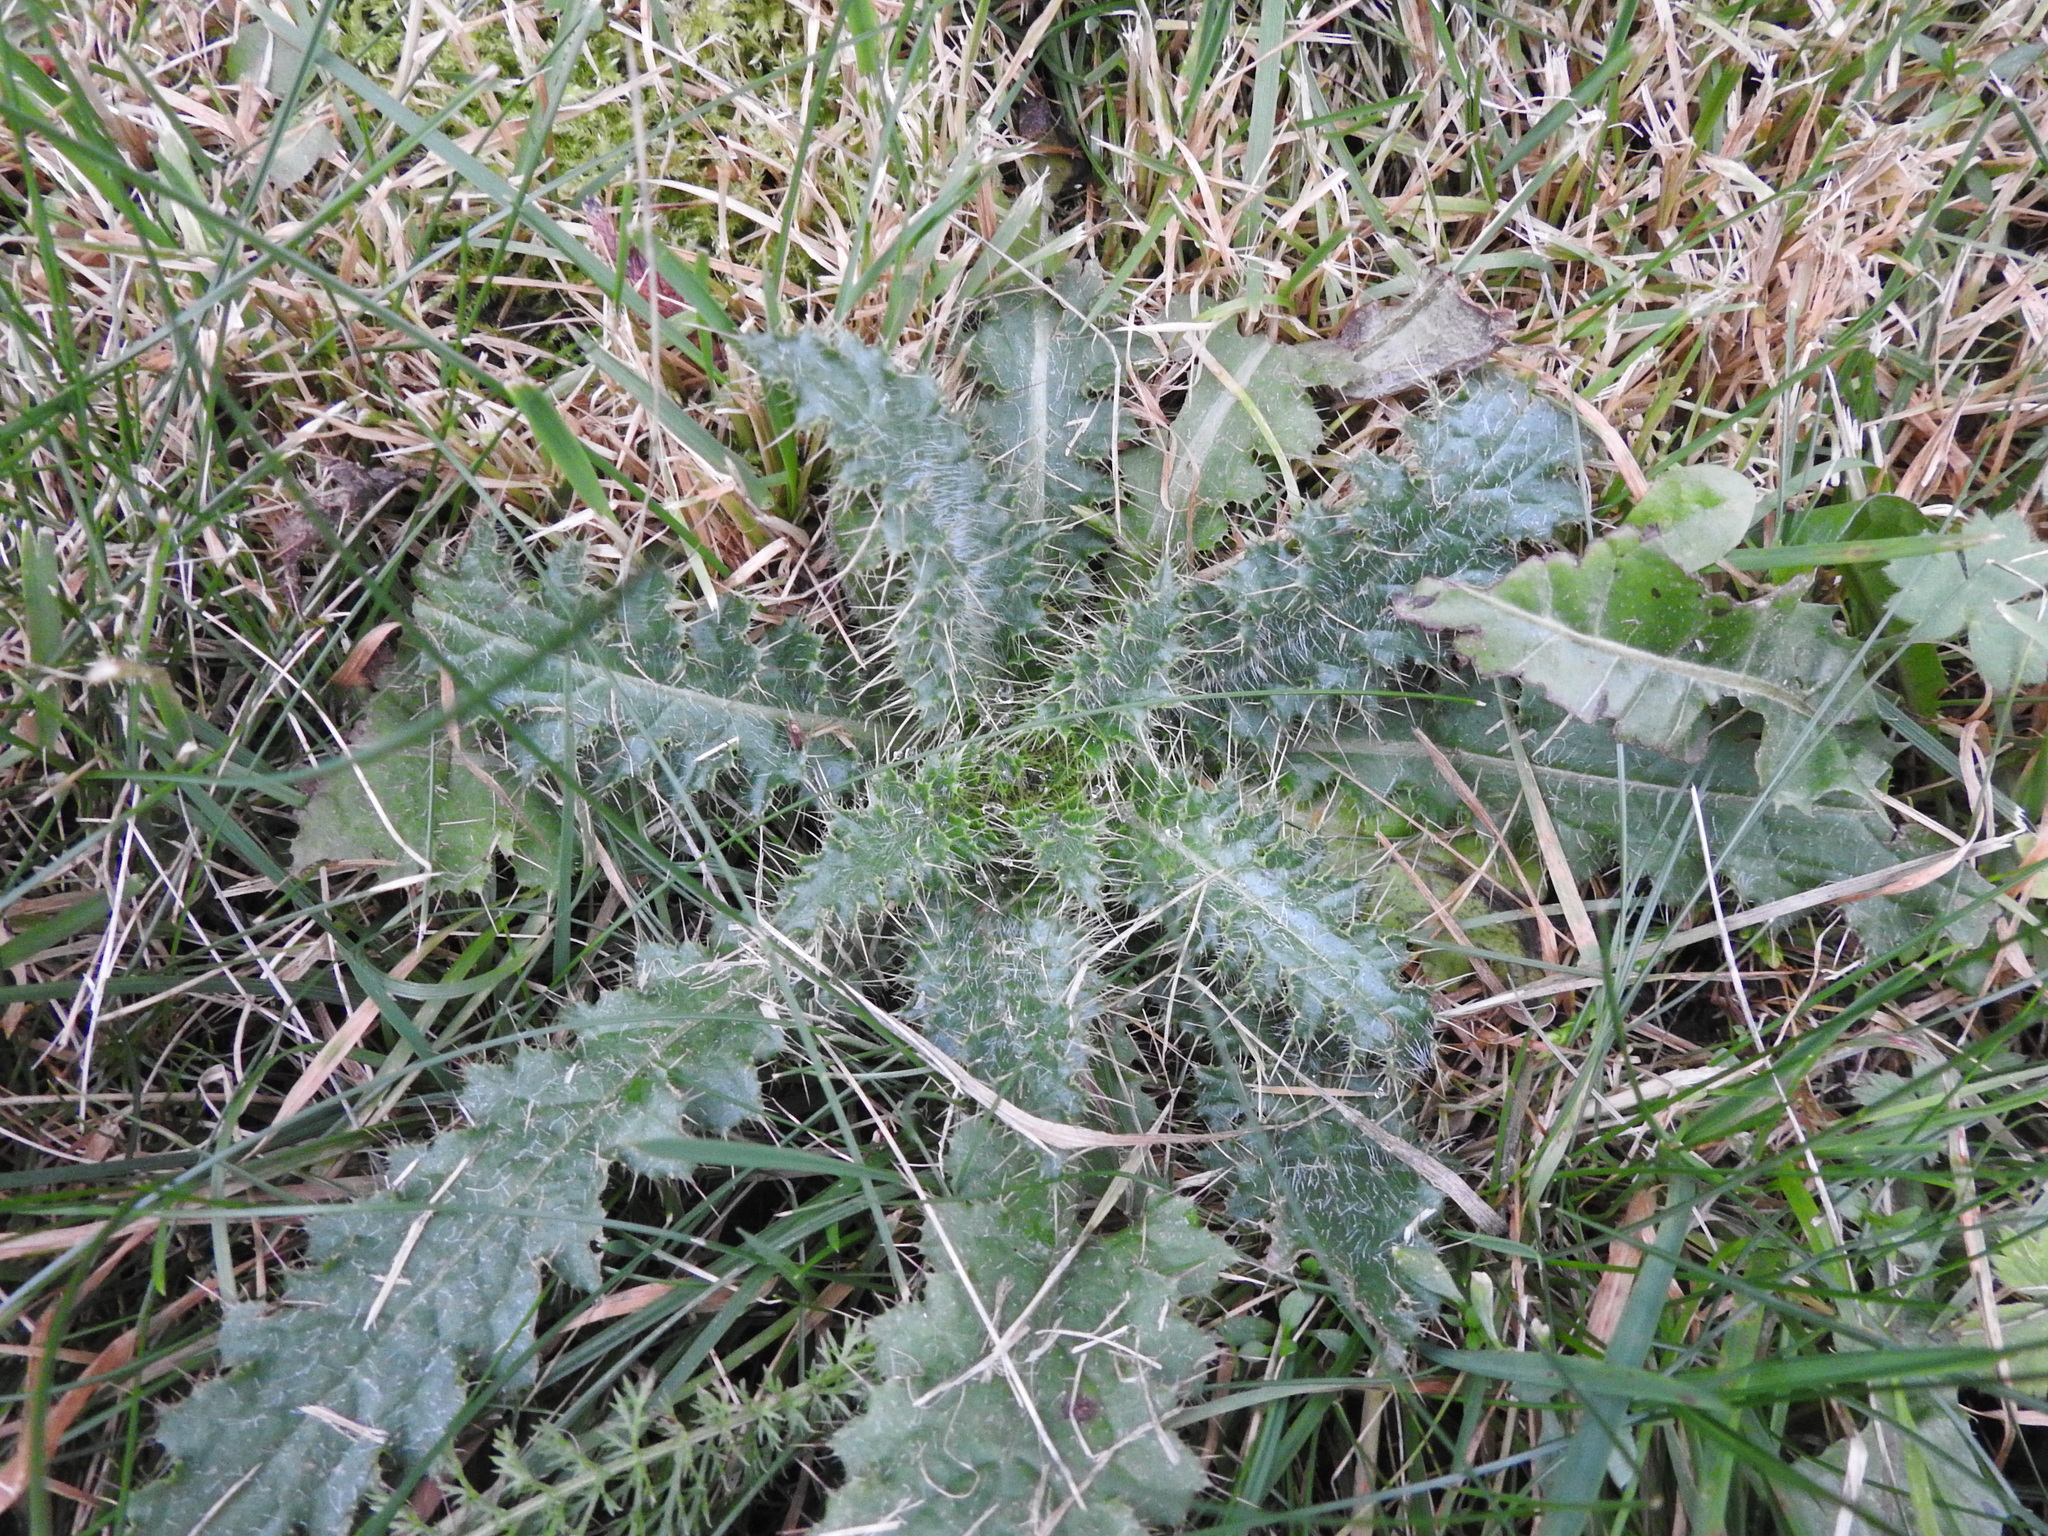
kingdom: Plantae
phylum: Tracheophyta
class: Magnoliopsida
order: Asterales
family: Asteraceae
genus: Cirsium
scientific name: Cirsium palustre
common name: Marsh thistle
